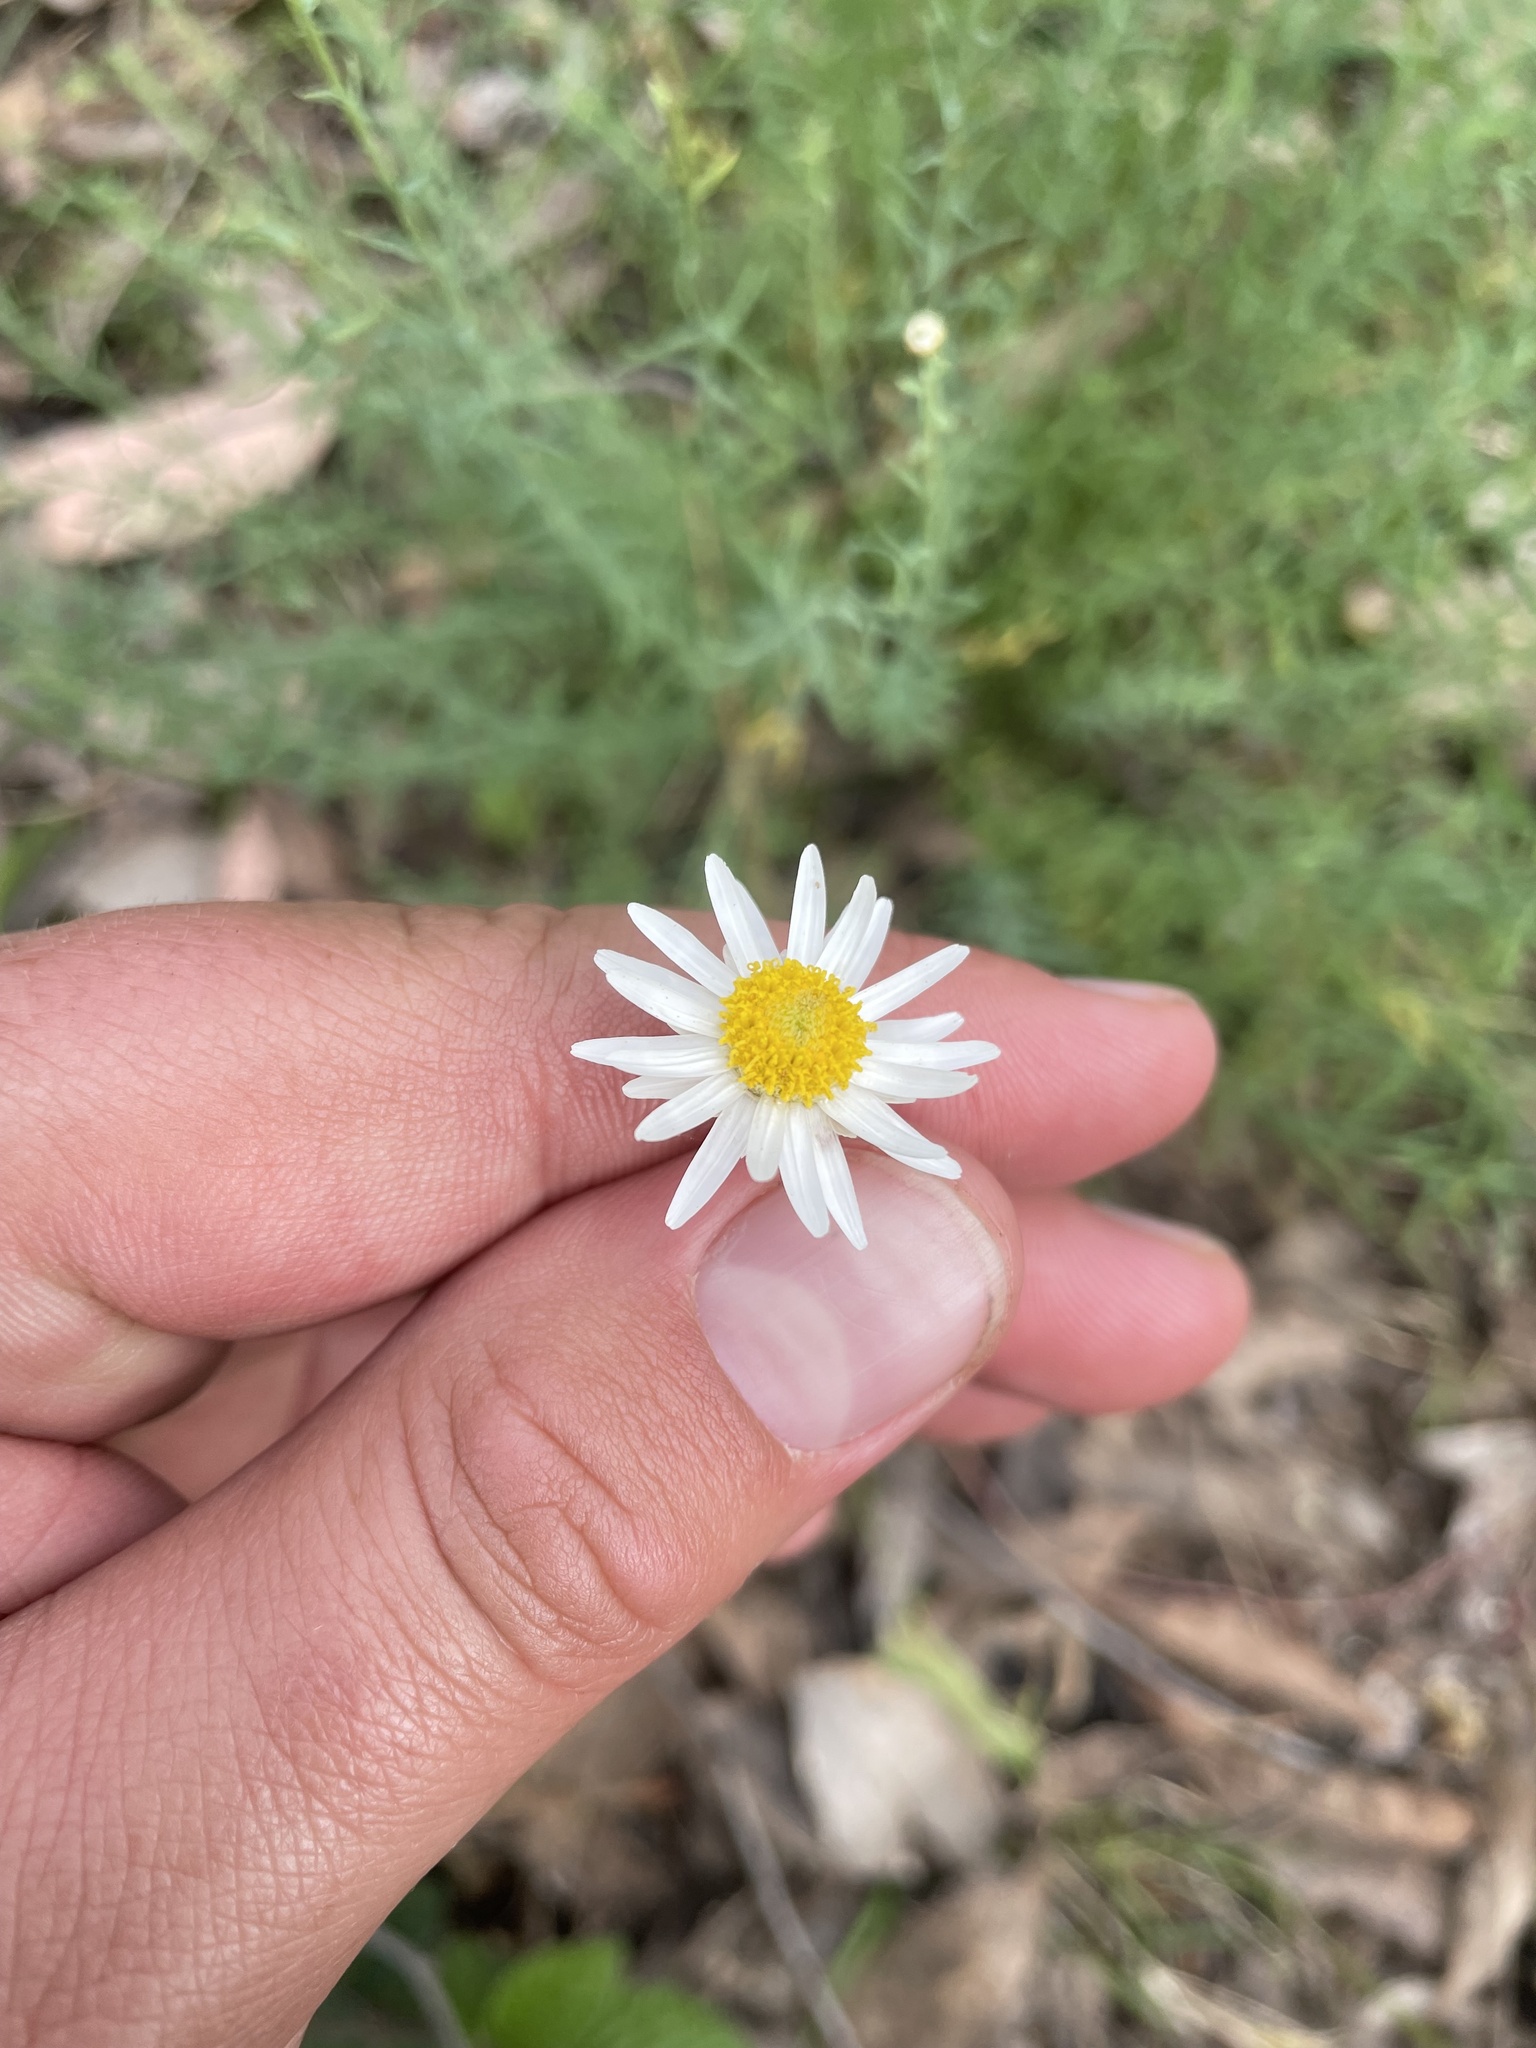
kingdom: Plantae
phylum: Tracheophyta
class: Magnoliopsida
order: Asterales
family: Asteraceae
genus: Rhodanthe
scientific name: Rhodanthe anthemoides
